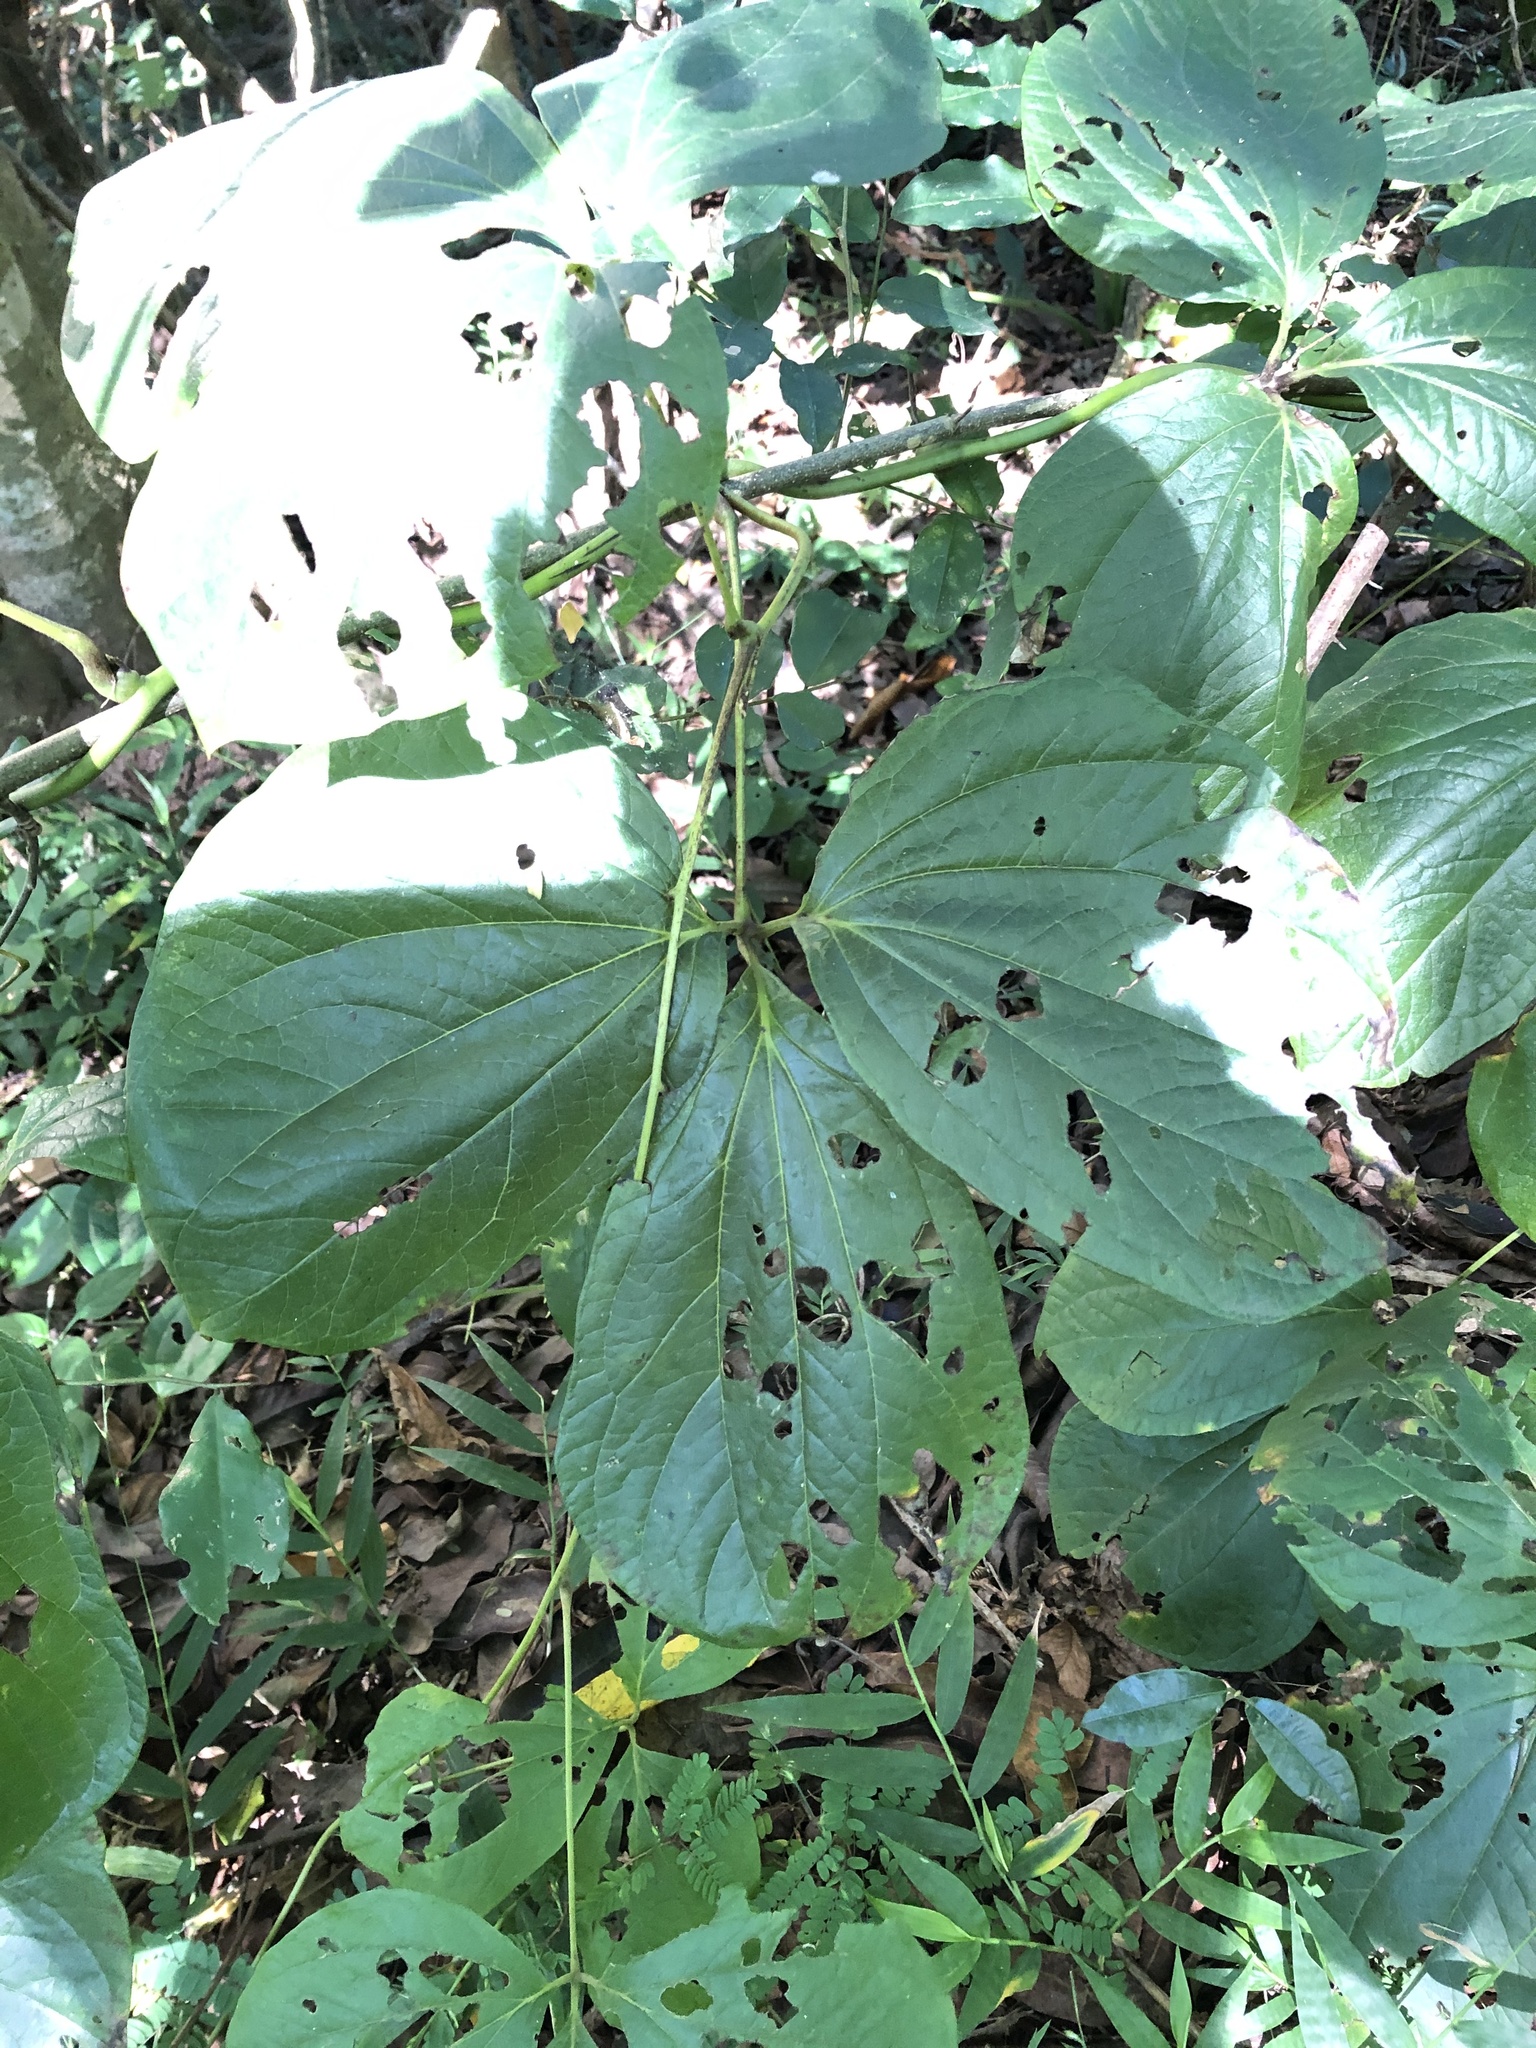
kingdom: Plantae
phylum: Tracheophyta
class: Liliopsida
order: Dioscoreales
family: Dioscoreaceae
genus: Dioscorea
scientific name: Dioscorea dregeana
